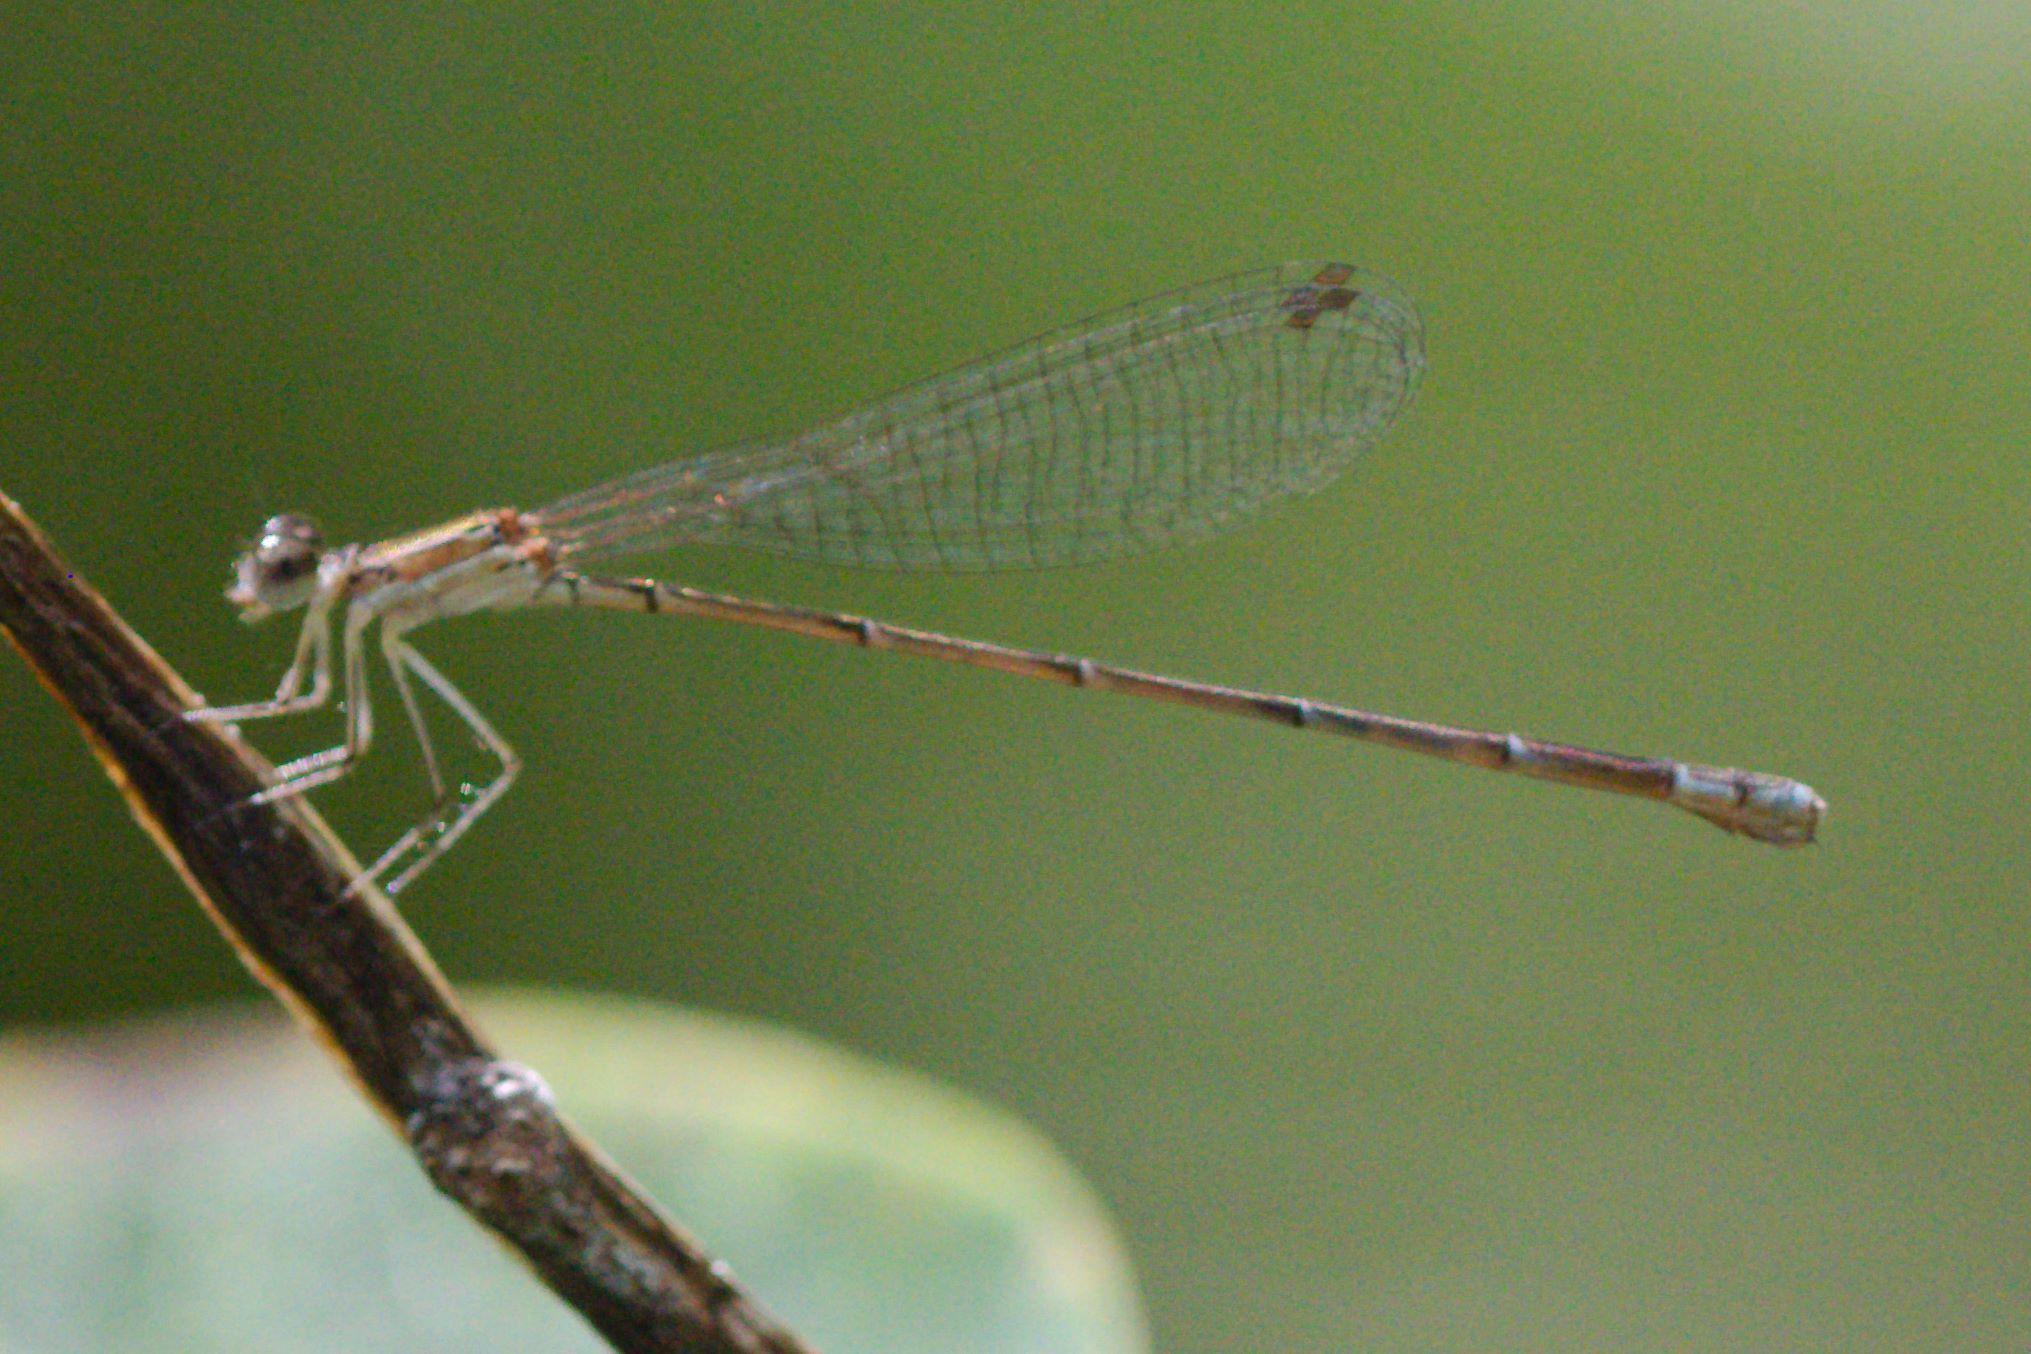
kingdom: Animalia
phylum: Arthropoda
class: Insecta
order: Odonata
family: Coenagrionidae
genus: Nehalennia
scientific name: Nehalennia pallidula
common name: Everglades sprite
